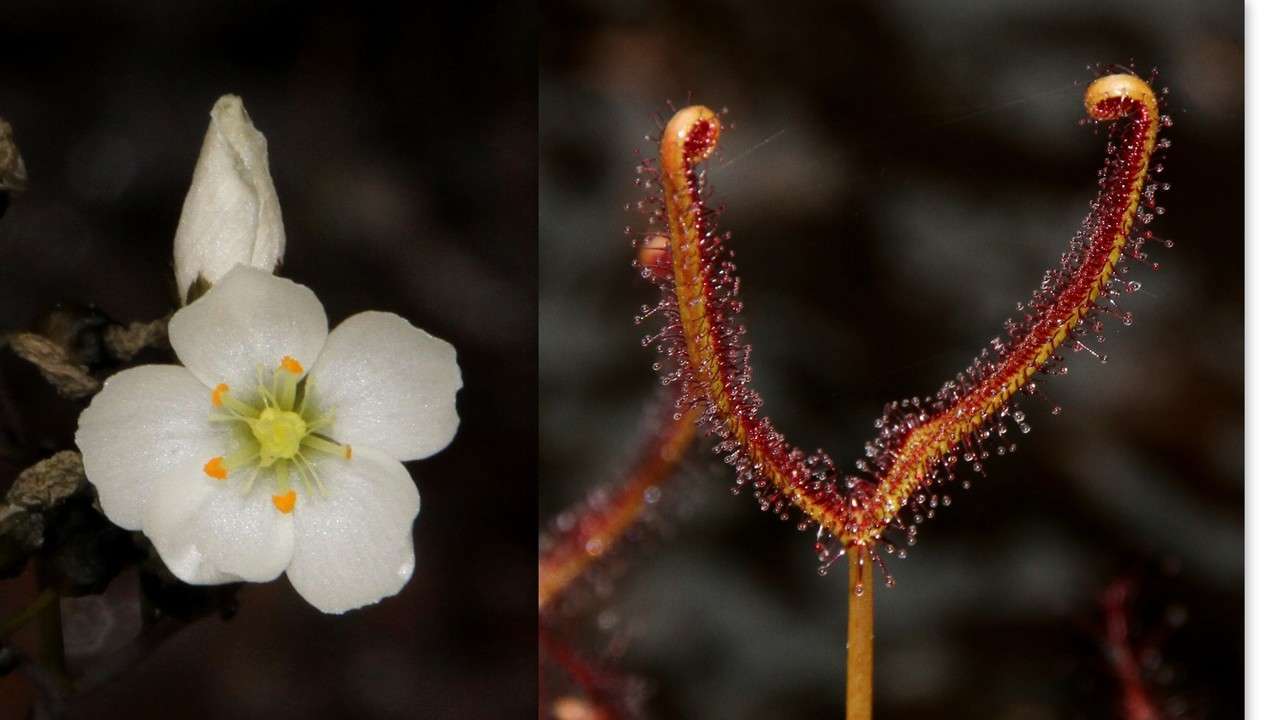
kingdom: Plantae
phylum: Tracheophyta
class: Magnoliopsida
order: Caryophyllales
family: Droseraceae
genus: Drosera
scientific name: Drosera binata
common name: Forked sundew
